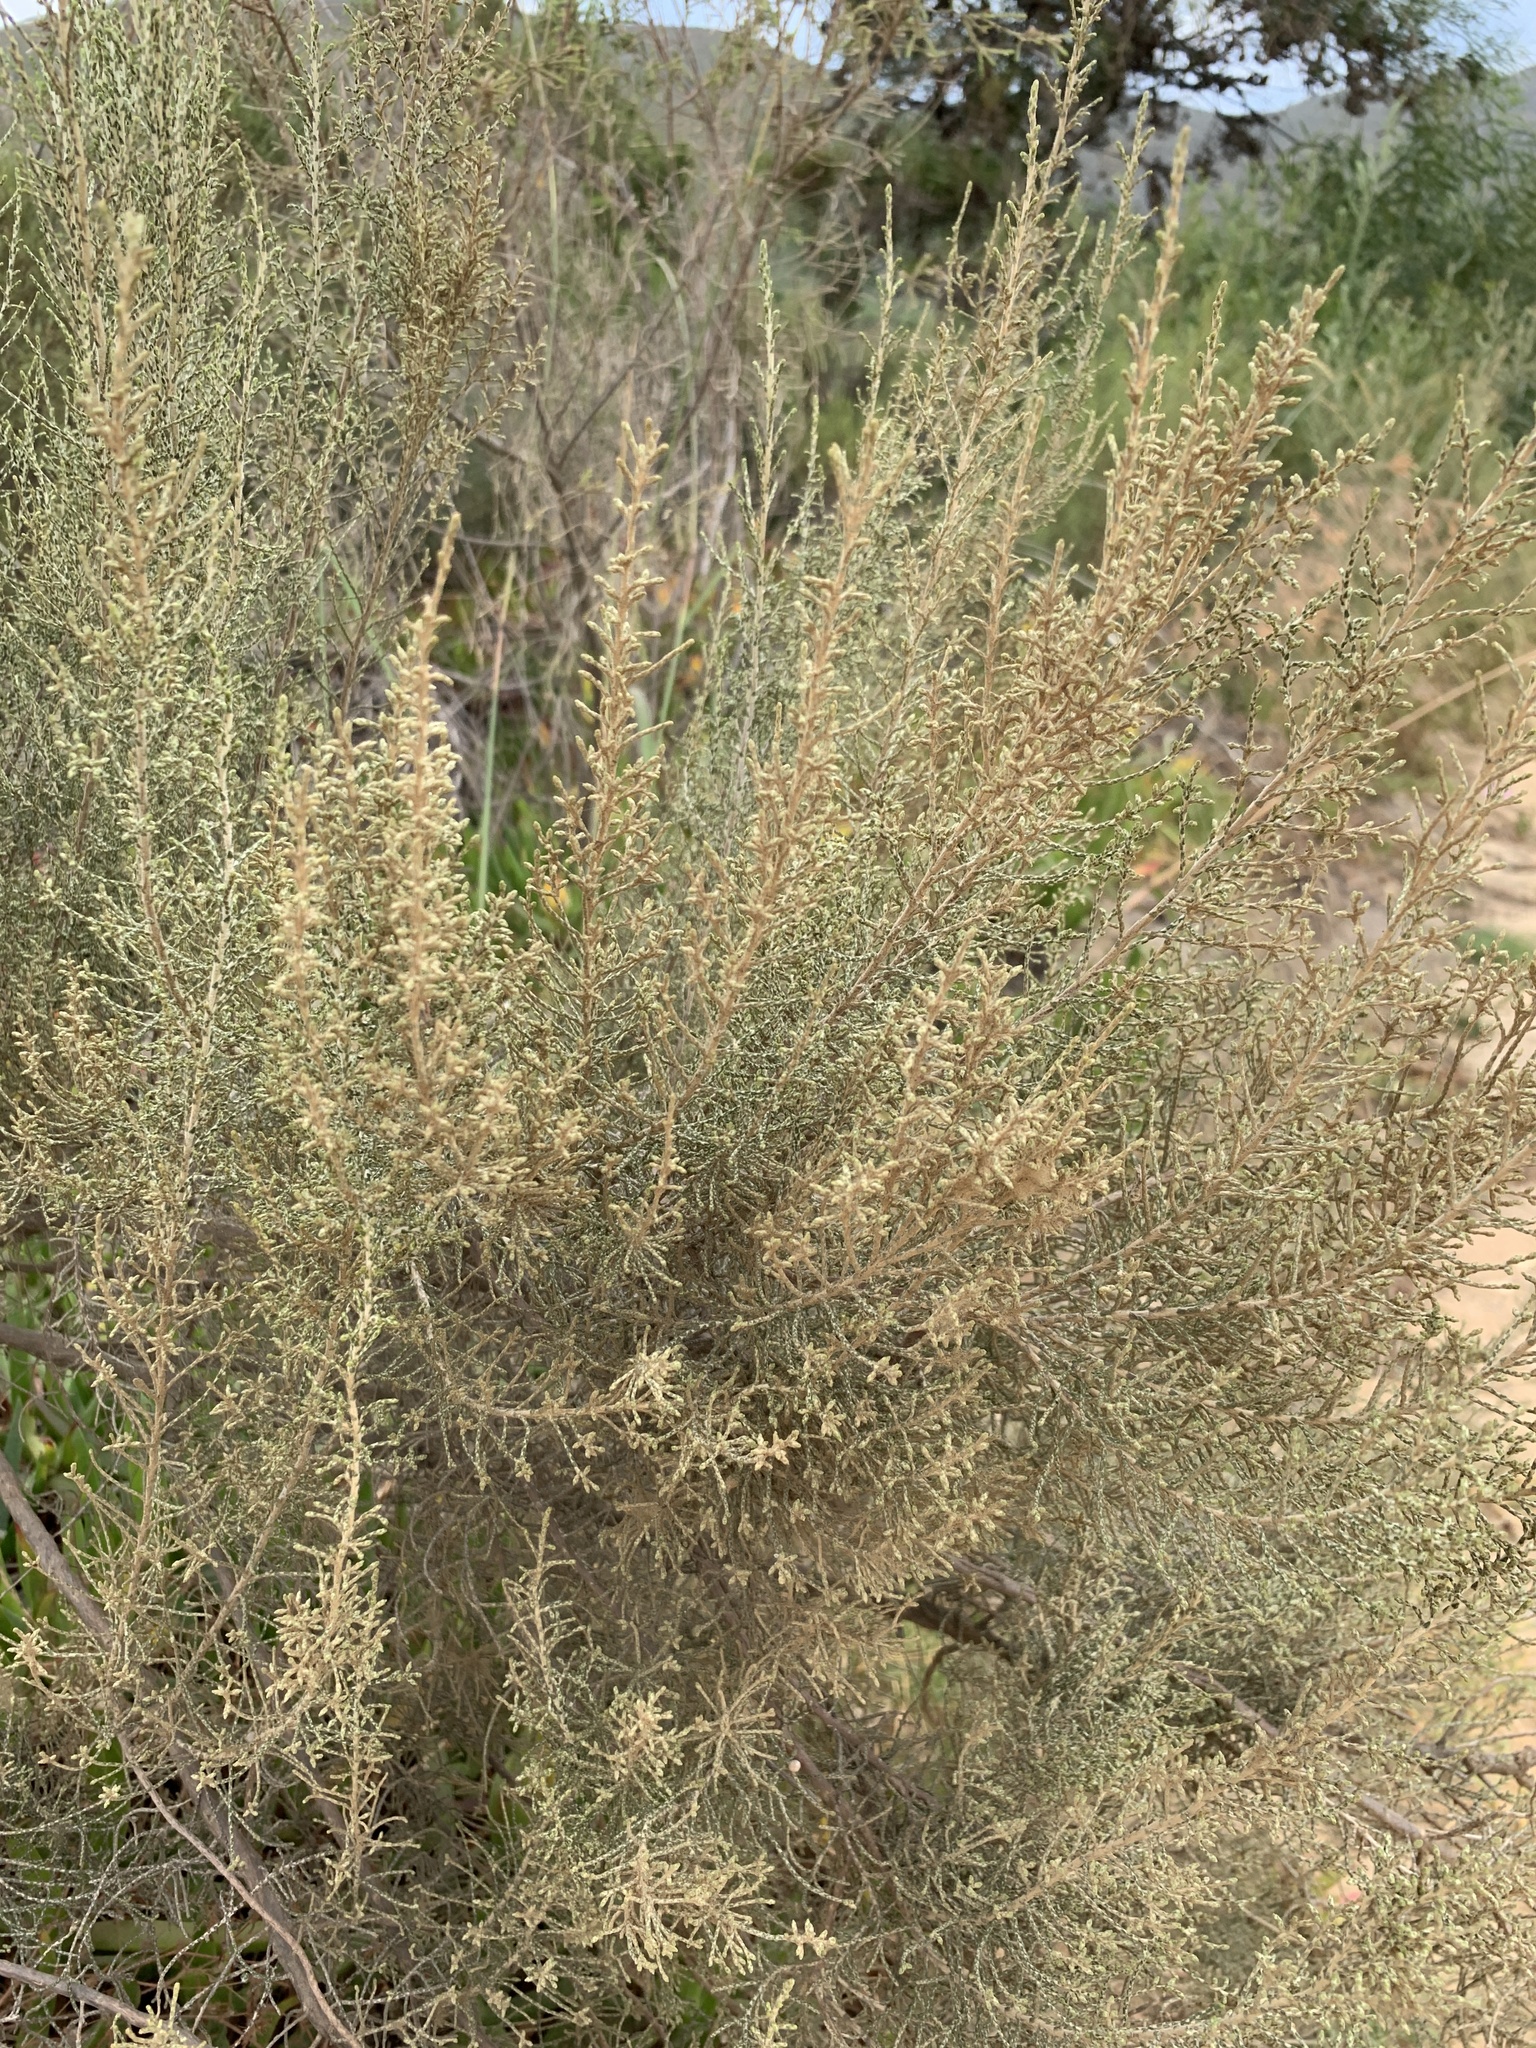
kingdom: Plantae
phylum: Tracheophyta
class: Magnoliopsida
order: Asterales
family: Asteraceae
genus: Dicerothamnus
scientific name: Dicerothamnus rhinocerotis
